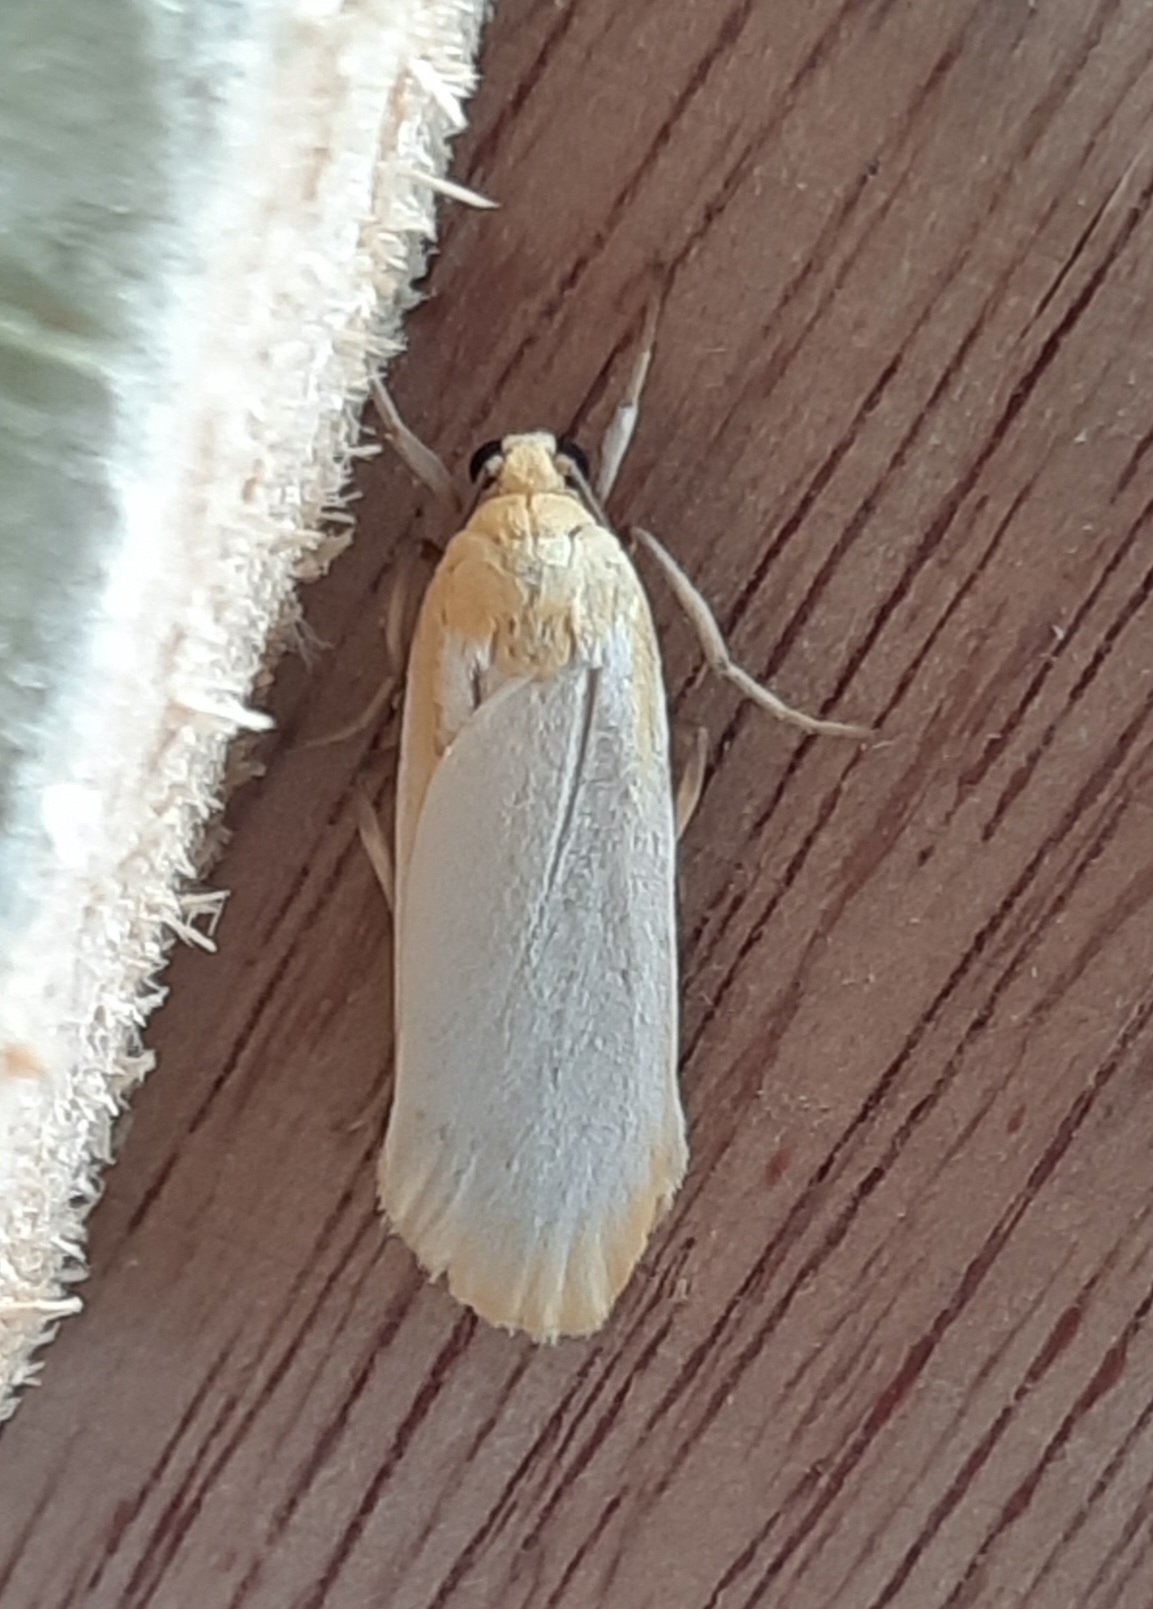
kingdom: Animalia
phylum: Arthropoda
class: Insecta
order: Lepidoptera
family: Erebidae
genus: Katha
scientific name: Katha depressa
